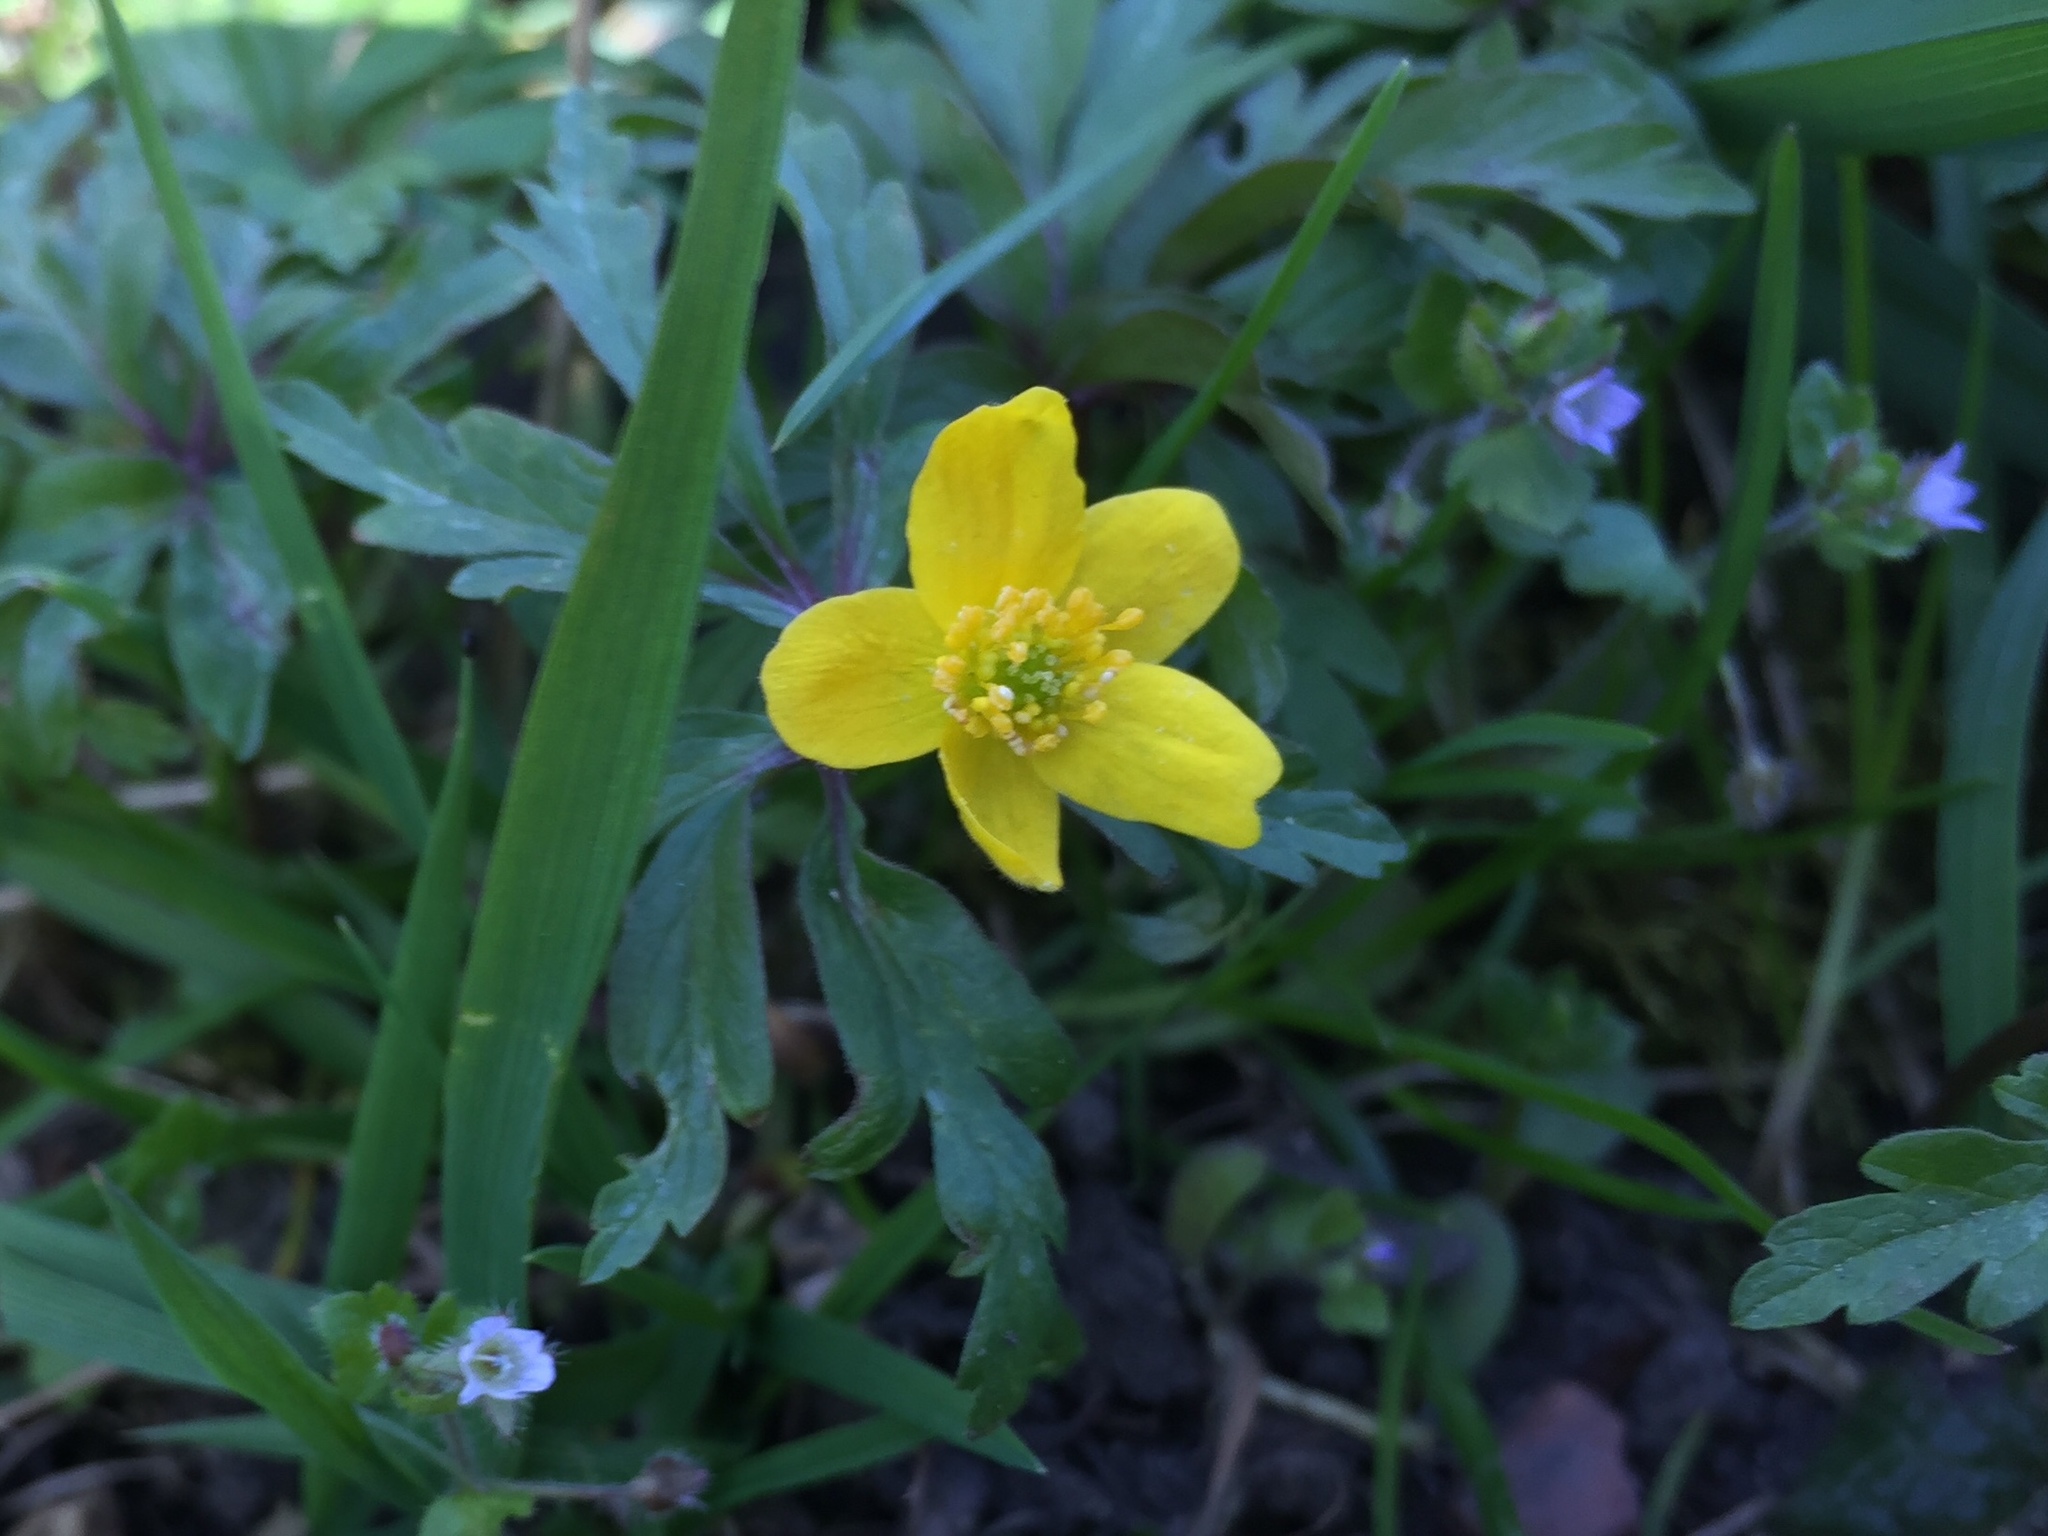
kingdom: Plantae
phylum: Tracheophyta
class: Magnoliopsida
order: Ranunculales
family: Ranunculaceae
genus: Anemone
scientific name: Anemone ranunculoides
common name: Yellow anemone
